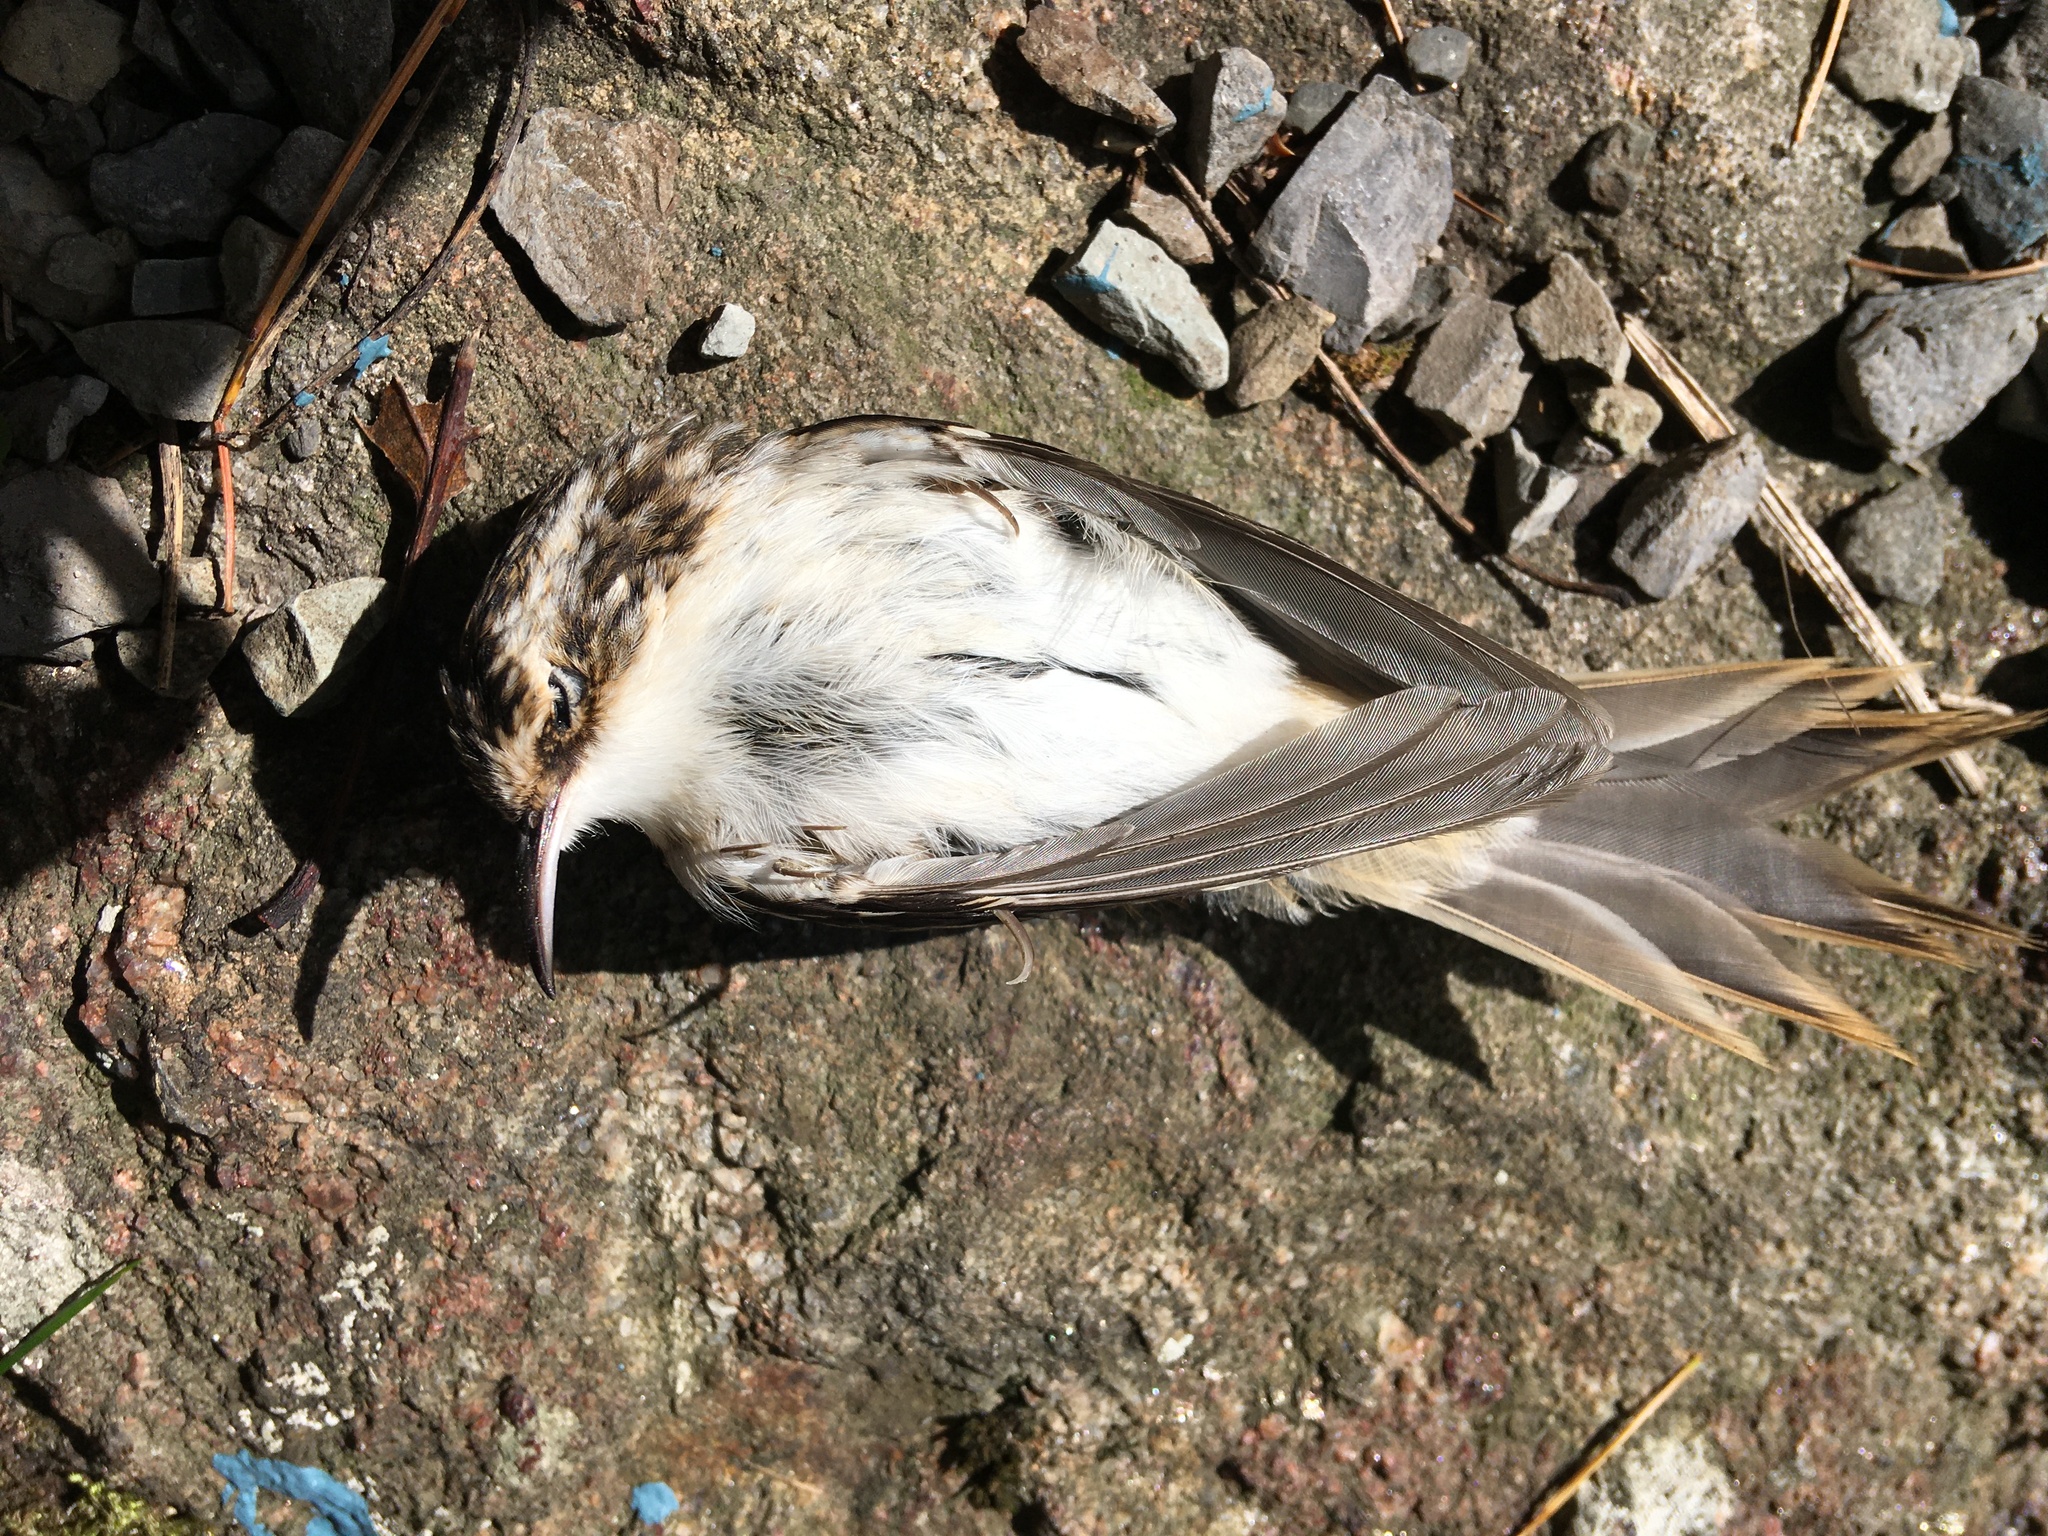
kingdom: Animalia
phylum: Chordata
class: Aves
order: Passeriformes
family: Certhiidae
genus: Certhia
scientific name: Certhia americana
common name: Brown creeper
